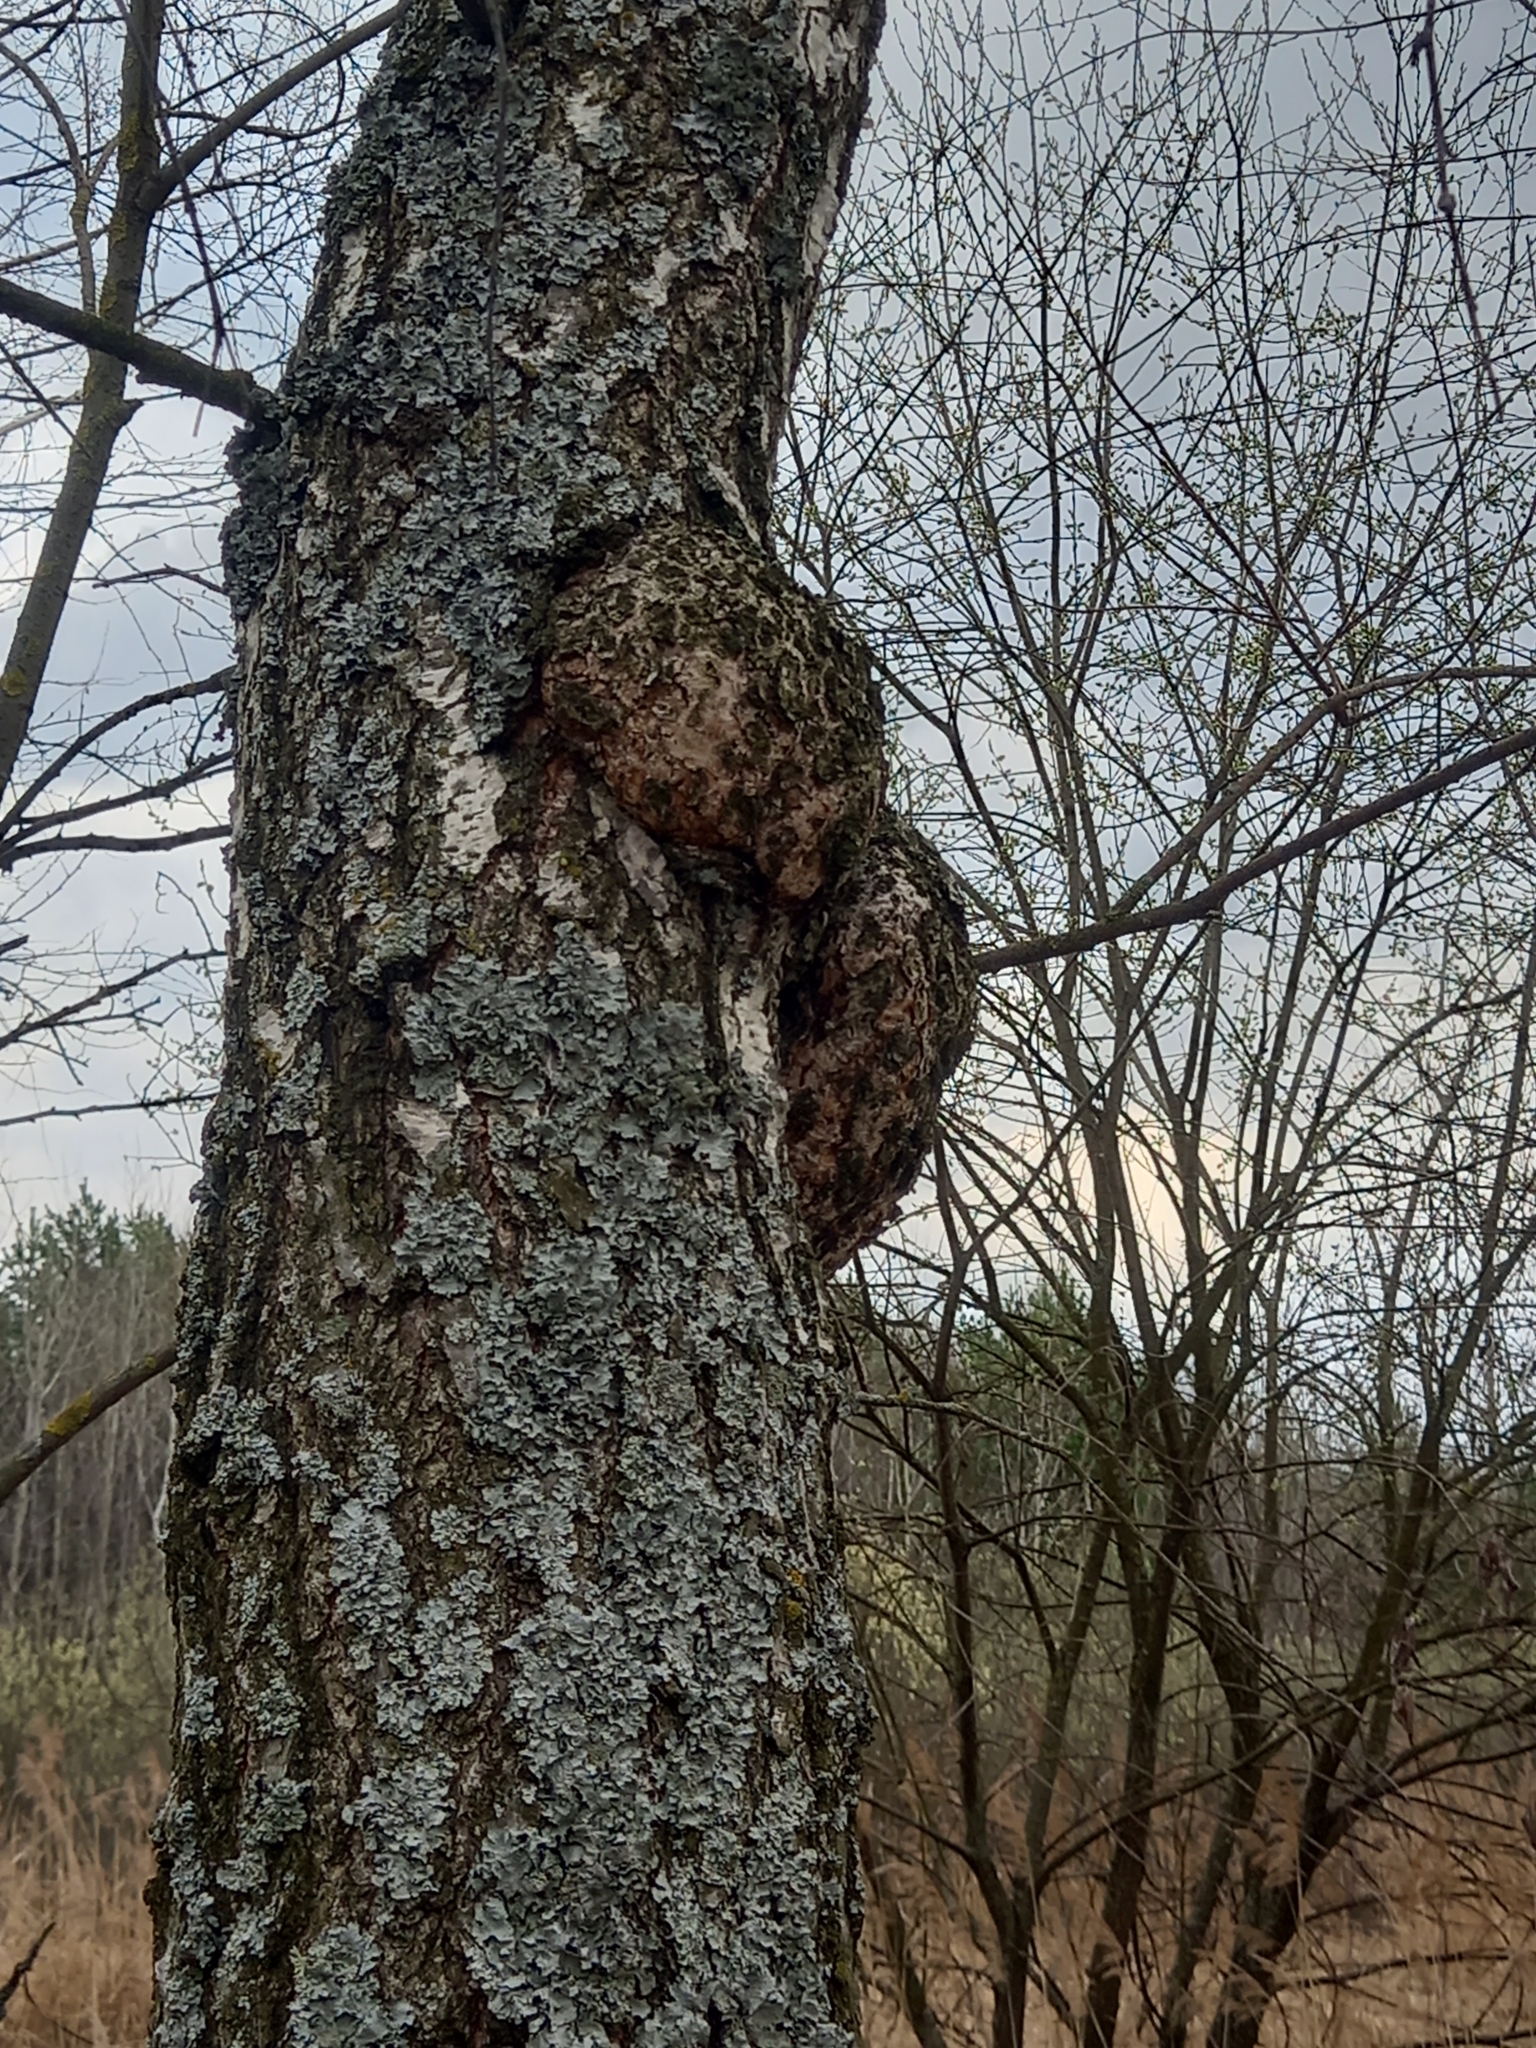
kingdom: Bacteria
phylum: Proteobacteria
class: Alphaproteobacteria
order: Rhizobiales
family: Rhizobiaceae
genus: Rhizobium
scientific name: Rhizobium Agrobacterium radiobacter
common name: Bacterial crown gall
